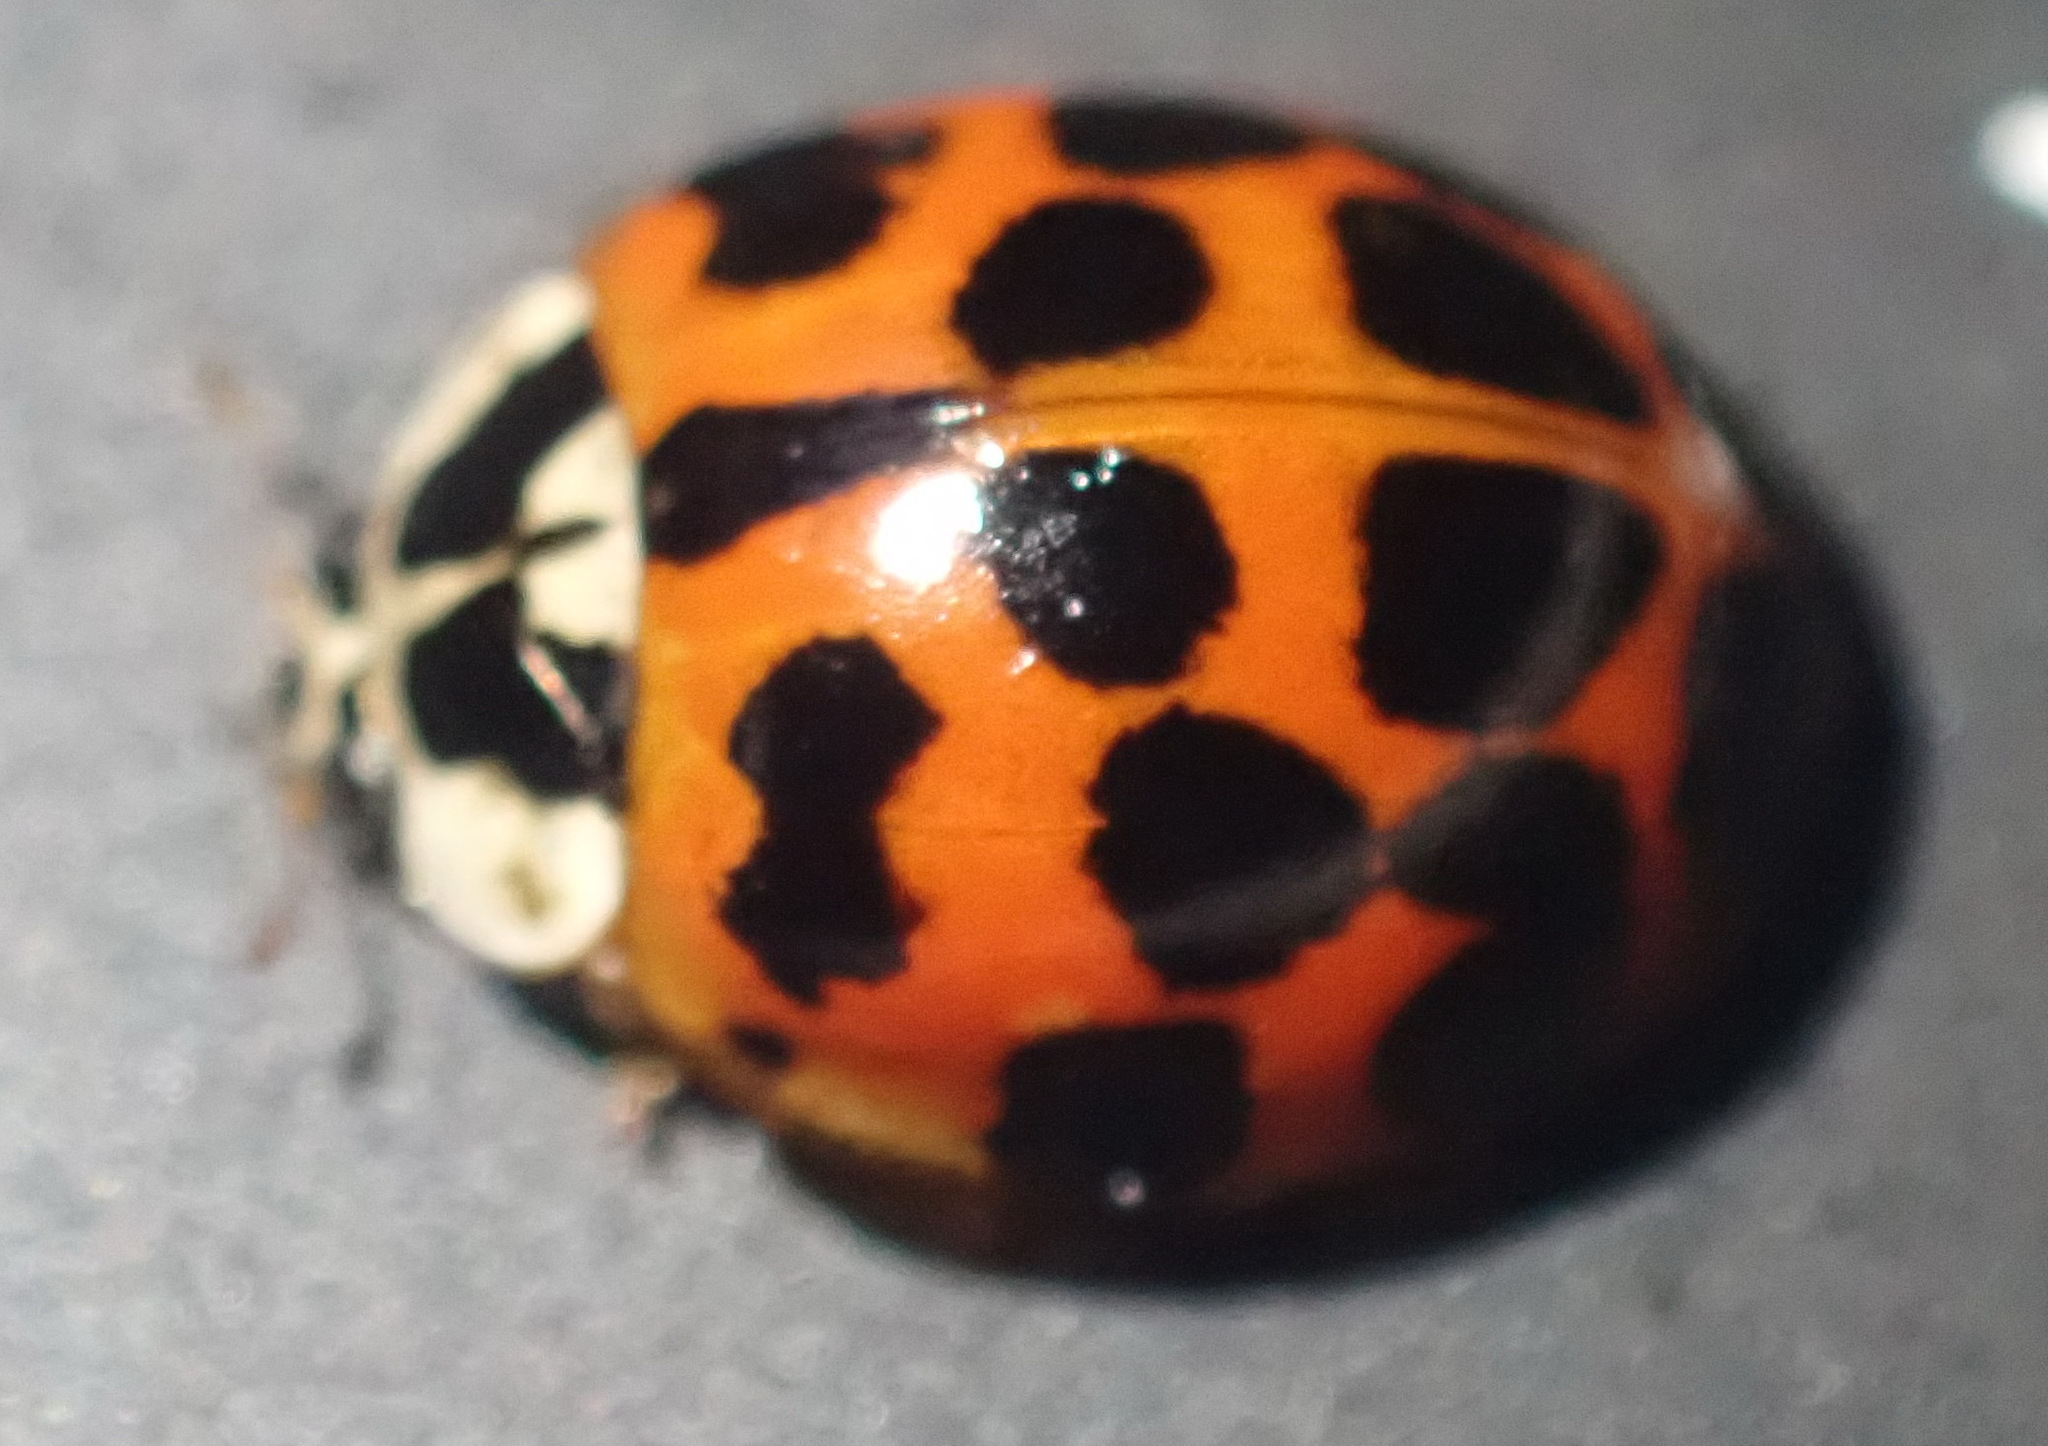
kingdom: Animalia
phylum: Arthropoda
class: Insecta
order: Coleoptera
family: Coccinellidae
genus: Harmonia
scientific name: Harmonia axyridis
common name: Harlequin ladybird
